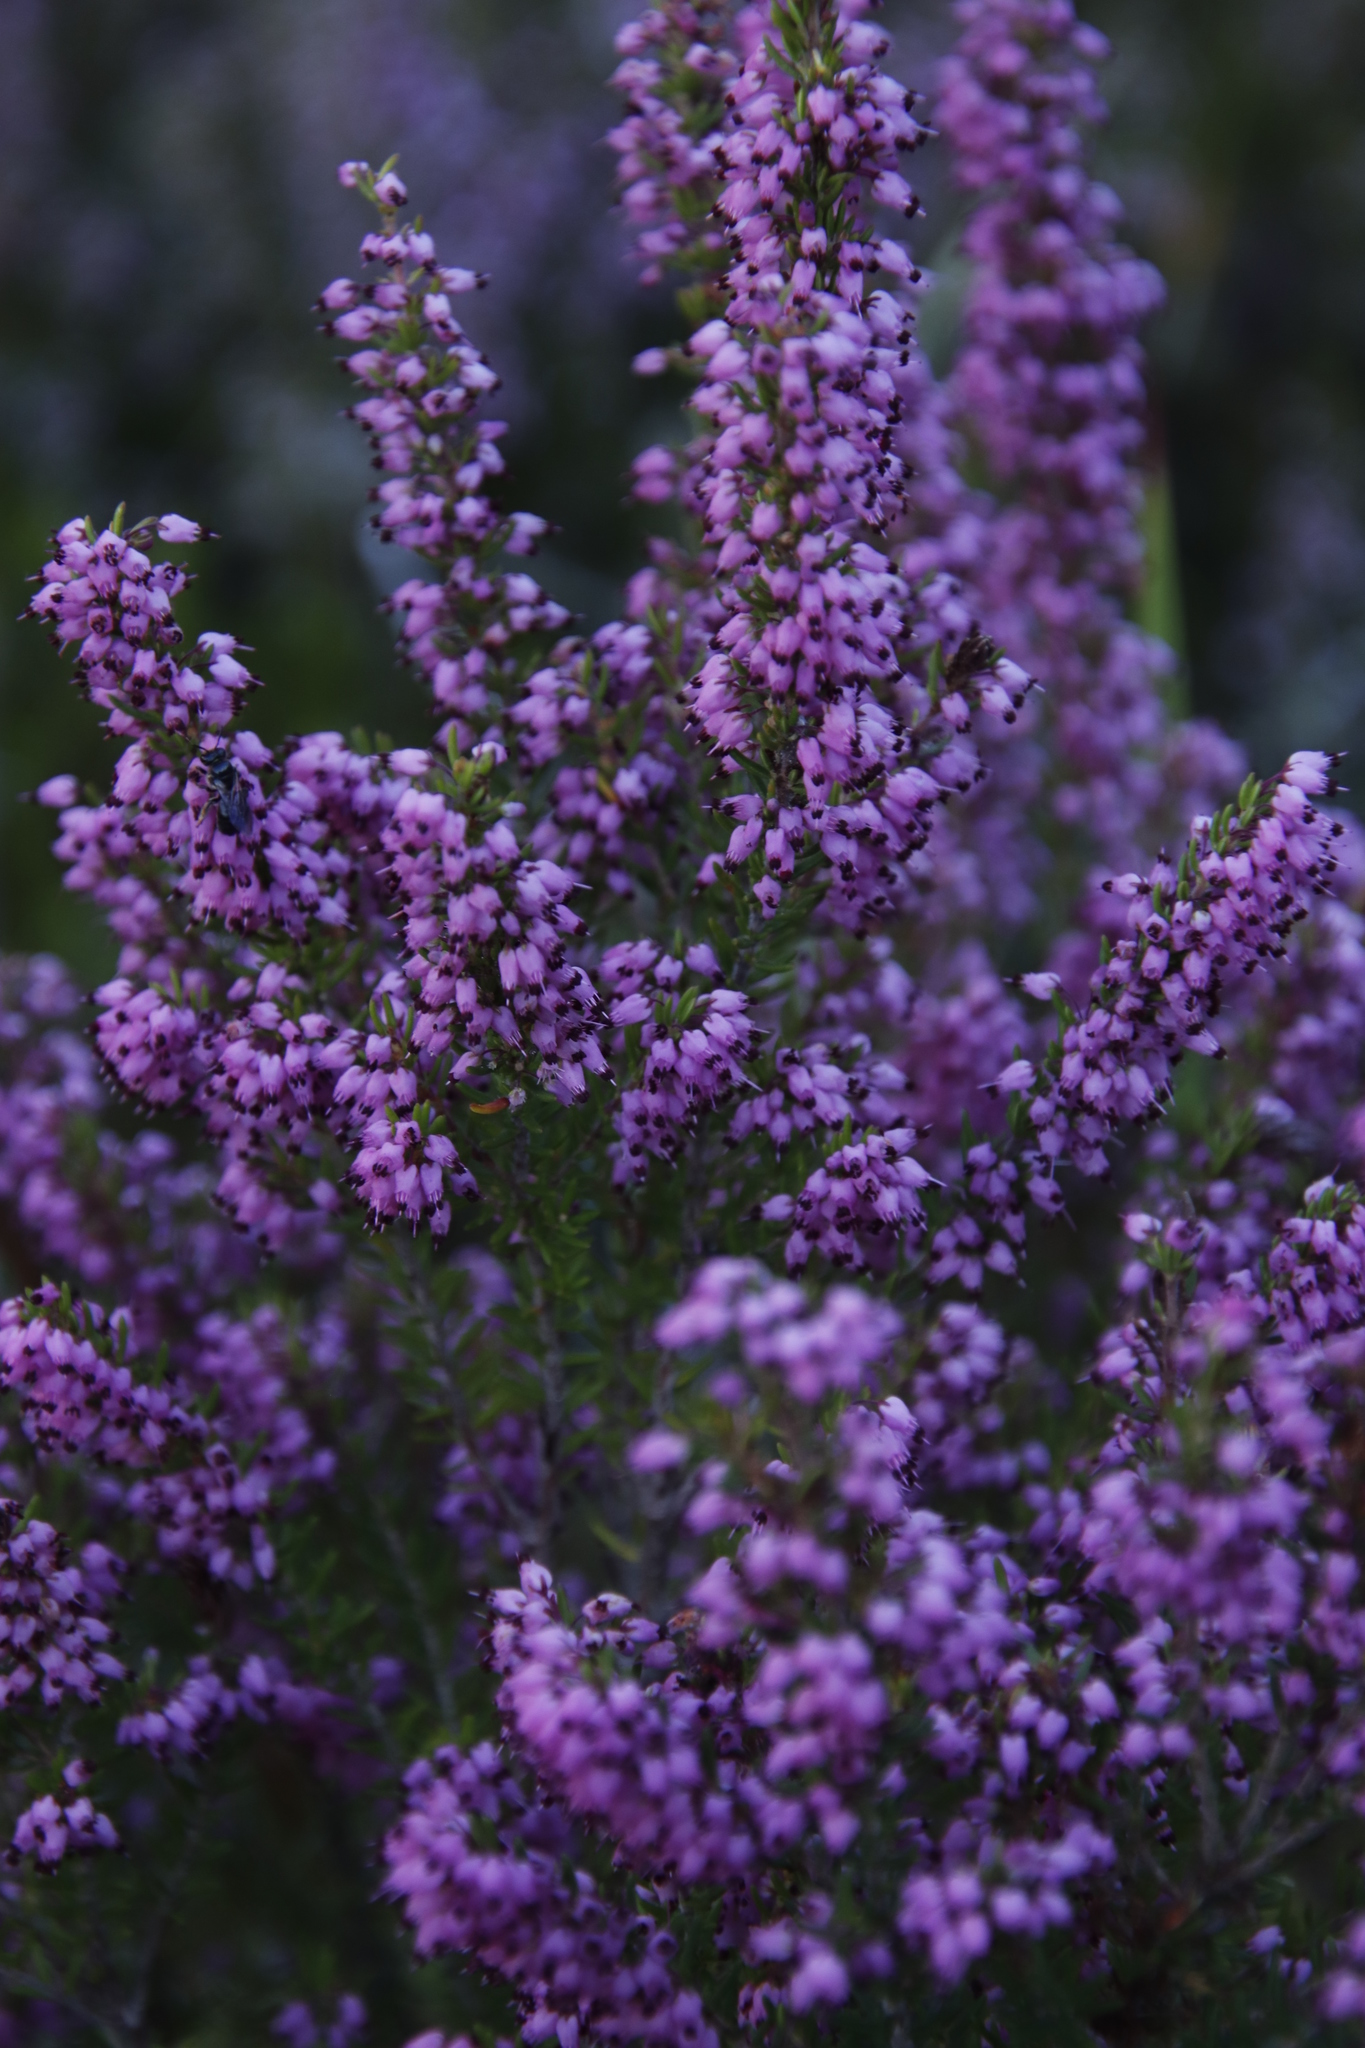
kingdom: Plantae
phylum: Tracheophyta
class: Magnoliopsida
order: Ericales
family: Ericaceae
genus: Erica
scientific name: Erica nudiflora
